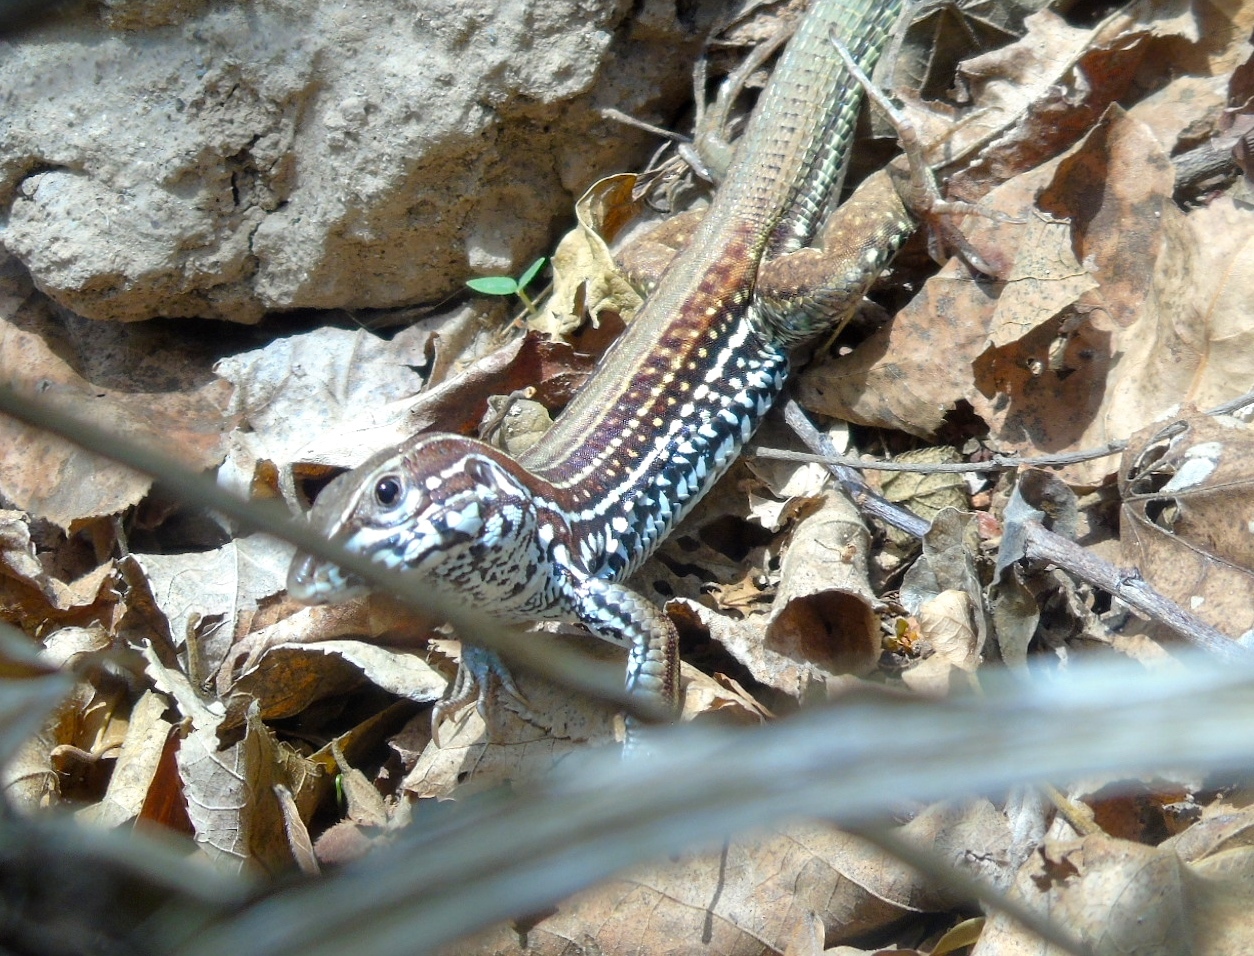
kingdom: Animalia
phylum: Chordata
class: Squamata
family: Teiidae
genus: Aspidoscelis
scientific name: Aspidoscelis costatus
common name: Western mexico whiptail
